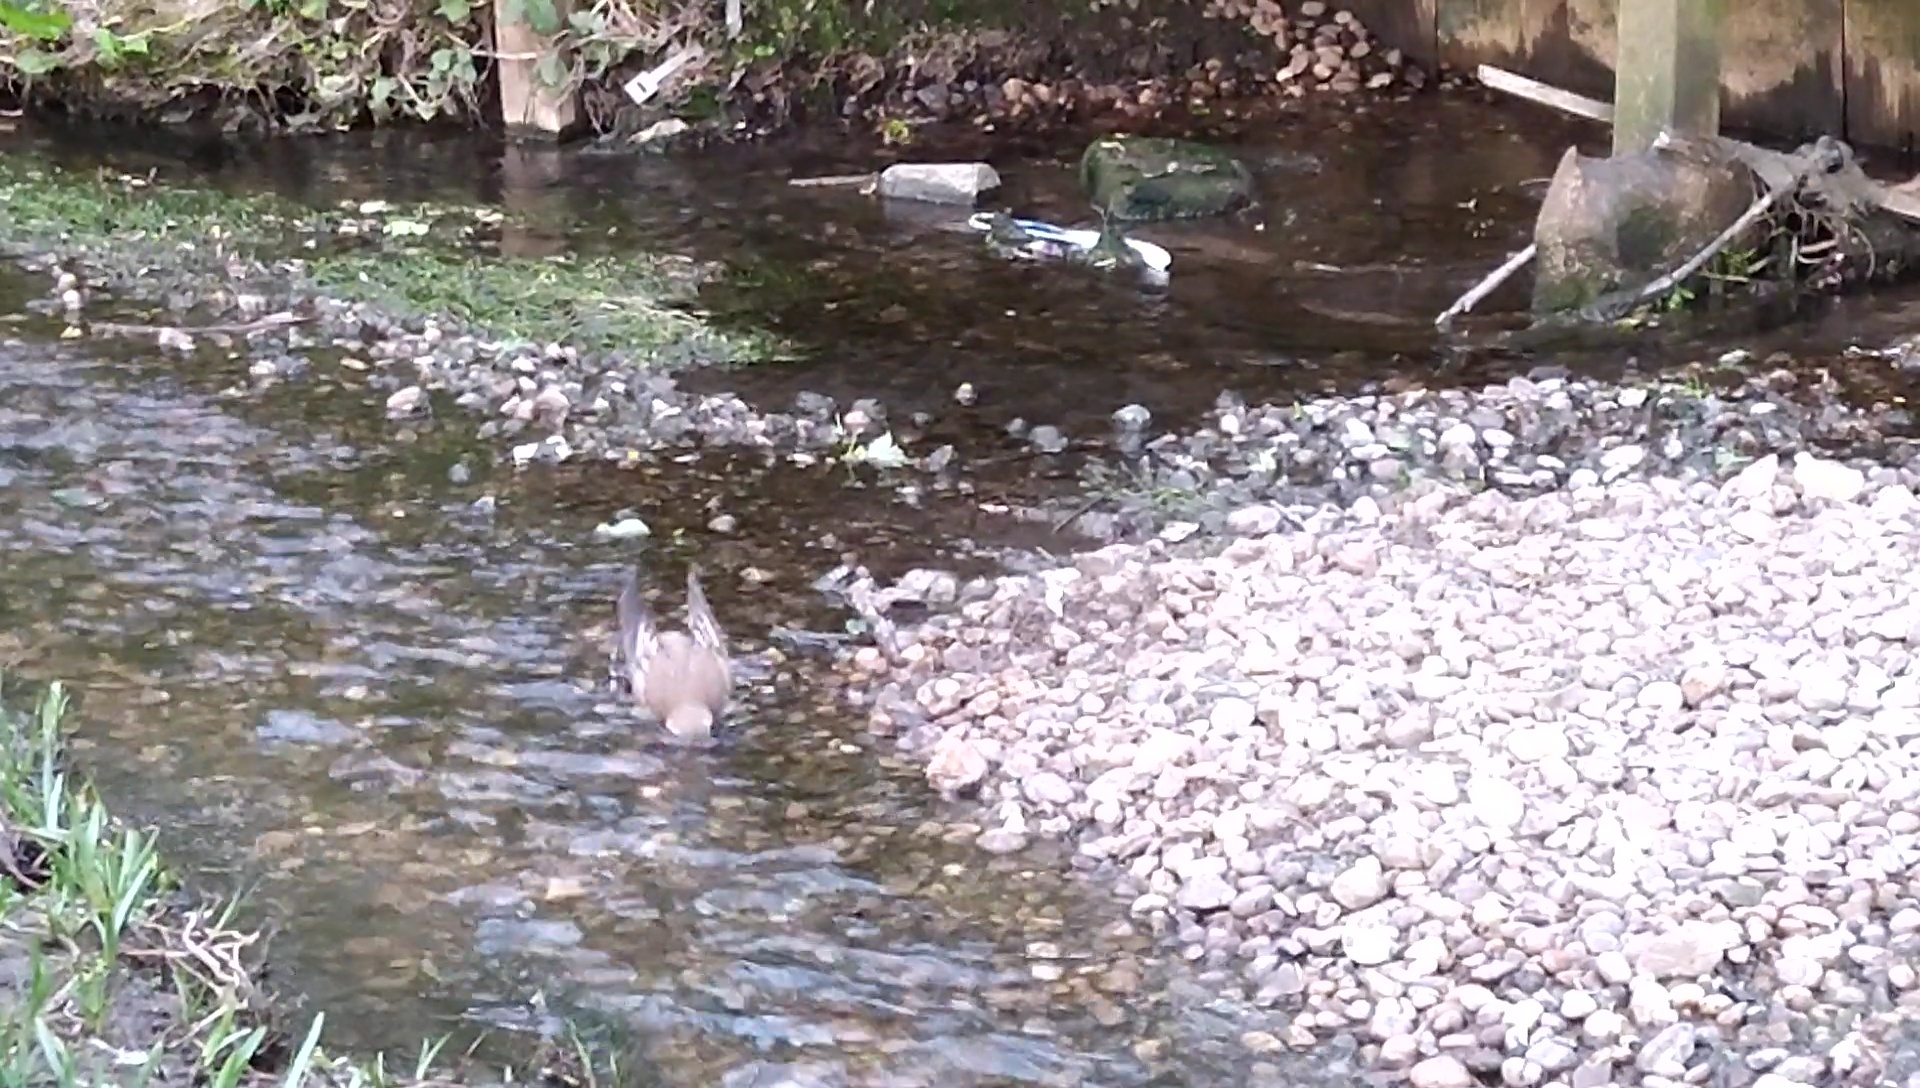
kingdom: Animalia
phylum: Chordata
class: Aves
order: Passeriformes
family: Turdidae
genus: Turdus
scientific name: Turdus viscivorus
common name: Mistle thrush
